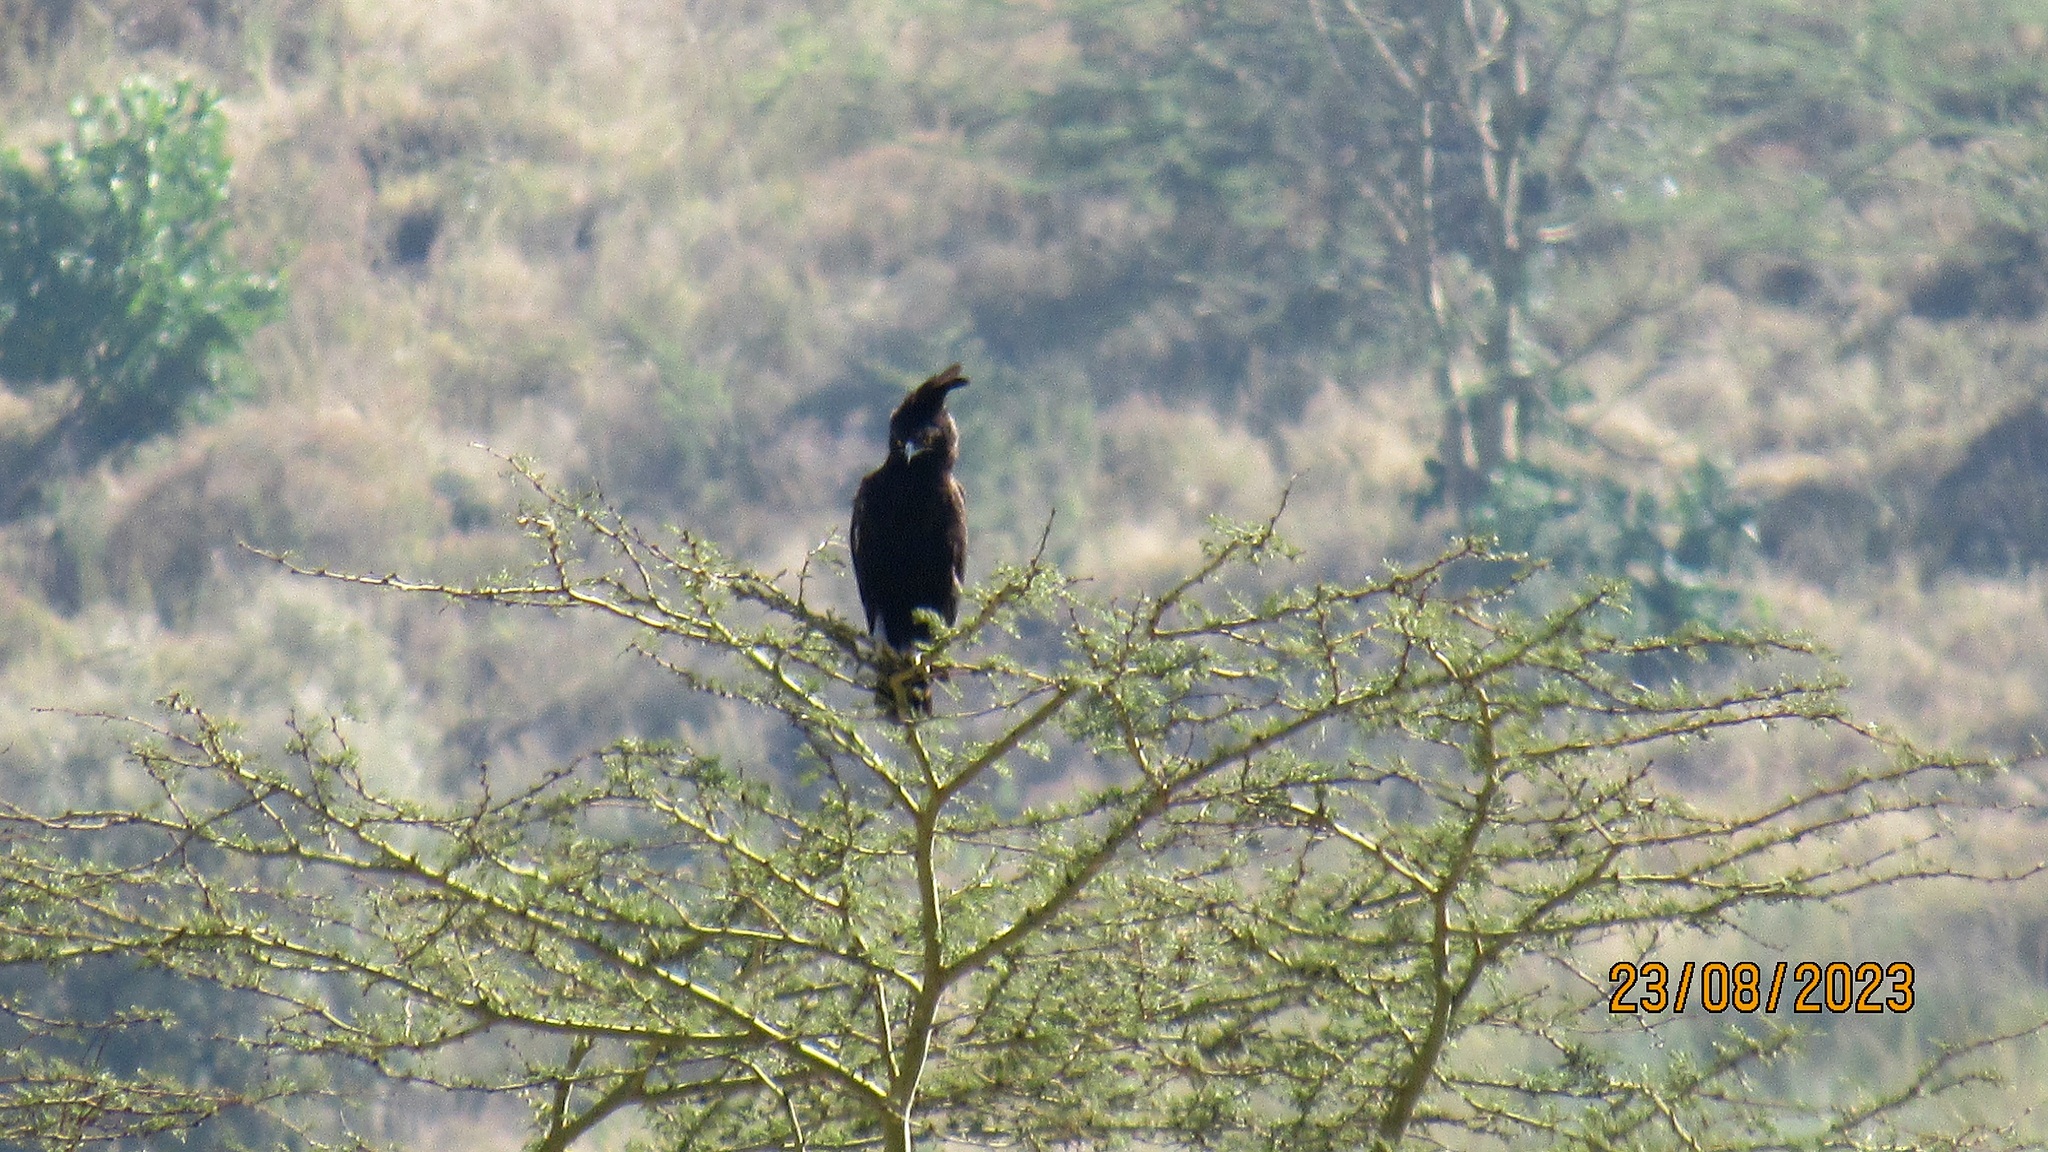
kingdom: Animalia
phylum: Chordata
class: Aves
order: Accipitriformes
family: Accipitridae
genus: Lophaetus
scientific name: Lophaetus occipitalis
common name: Long-crested eagle
